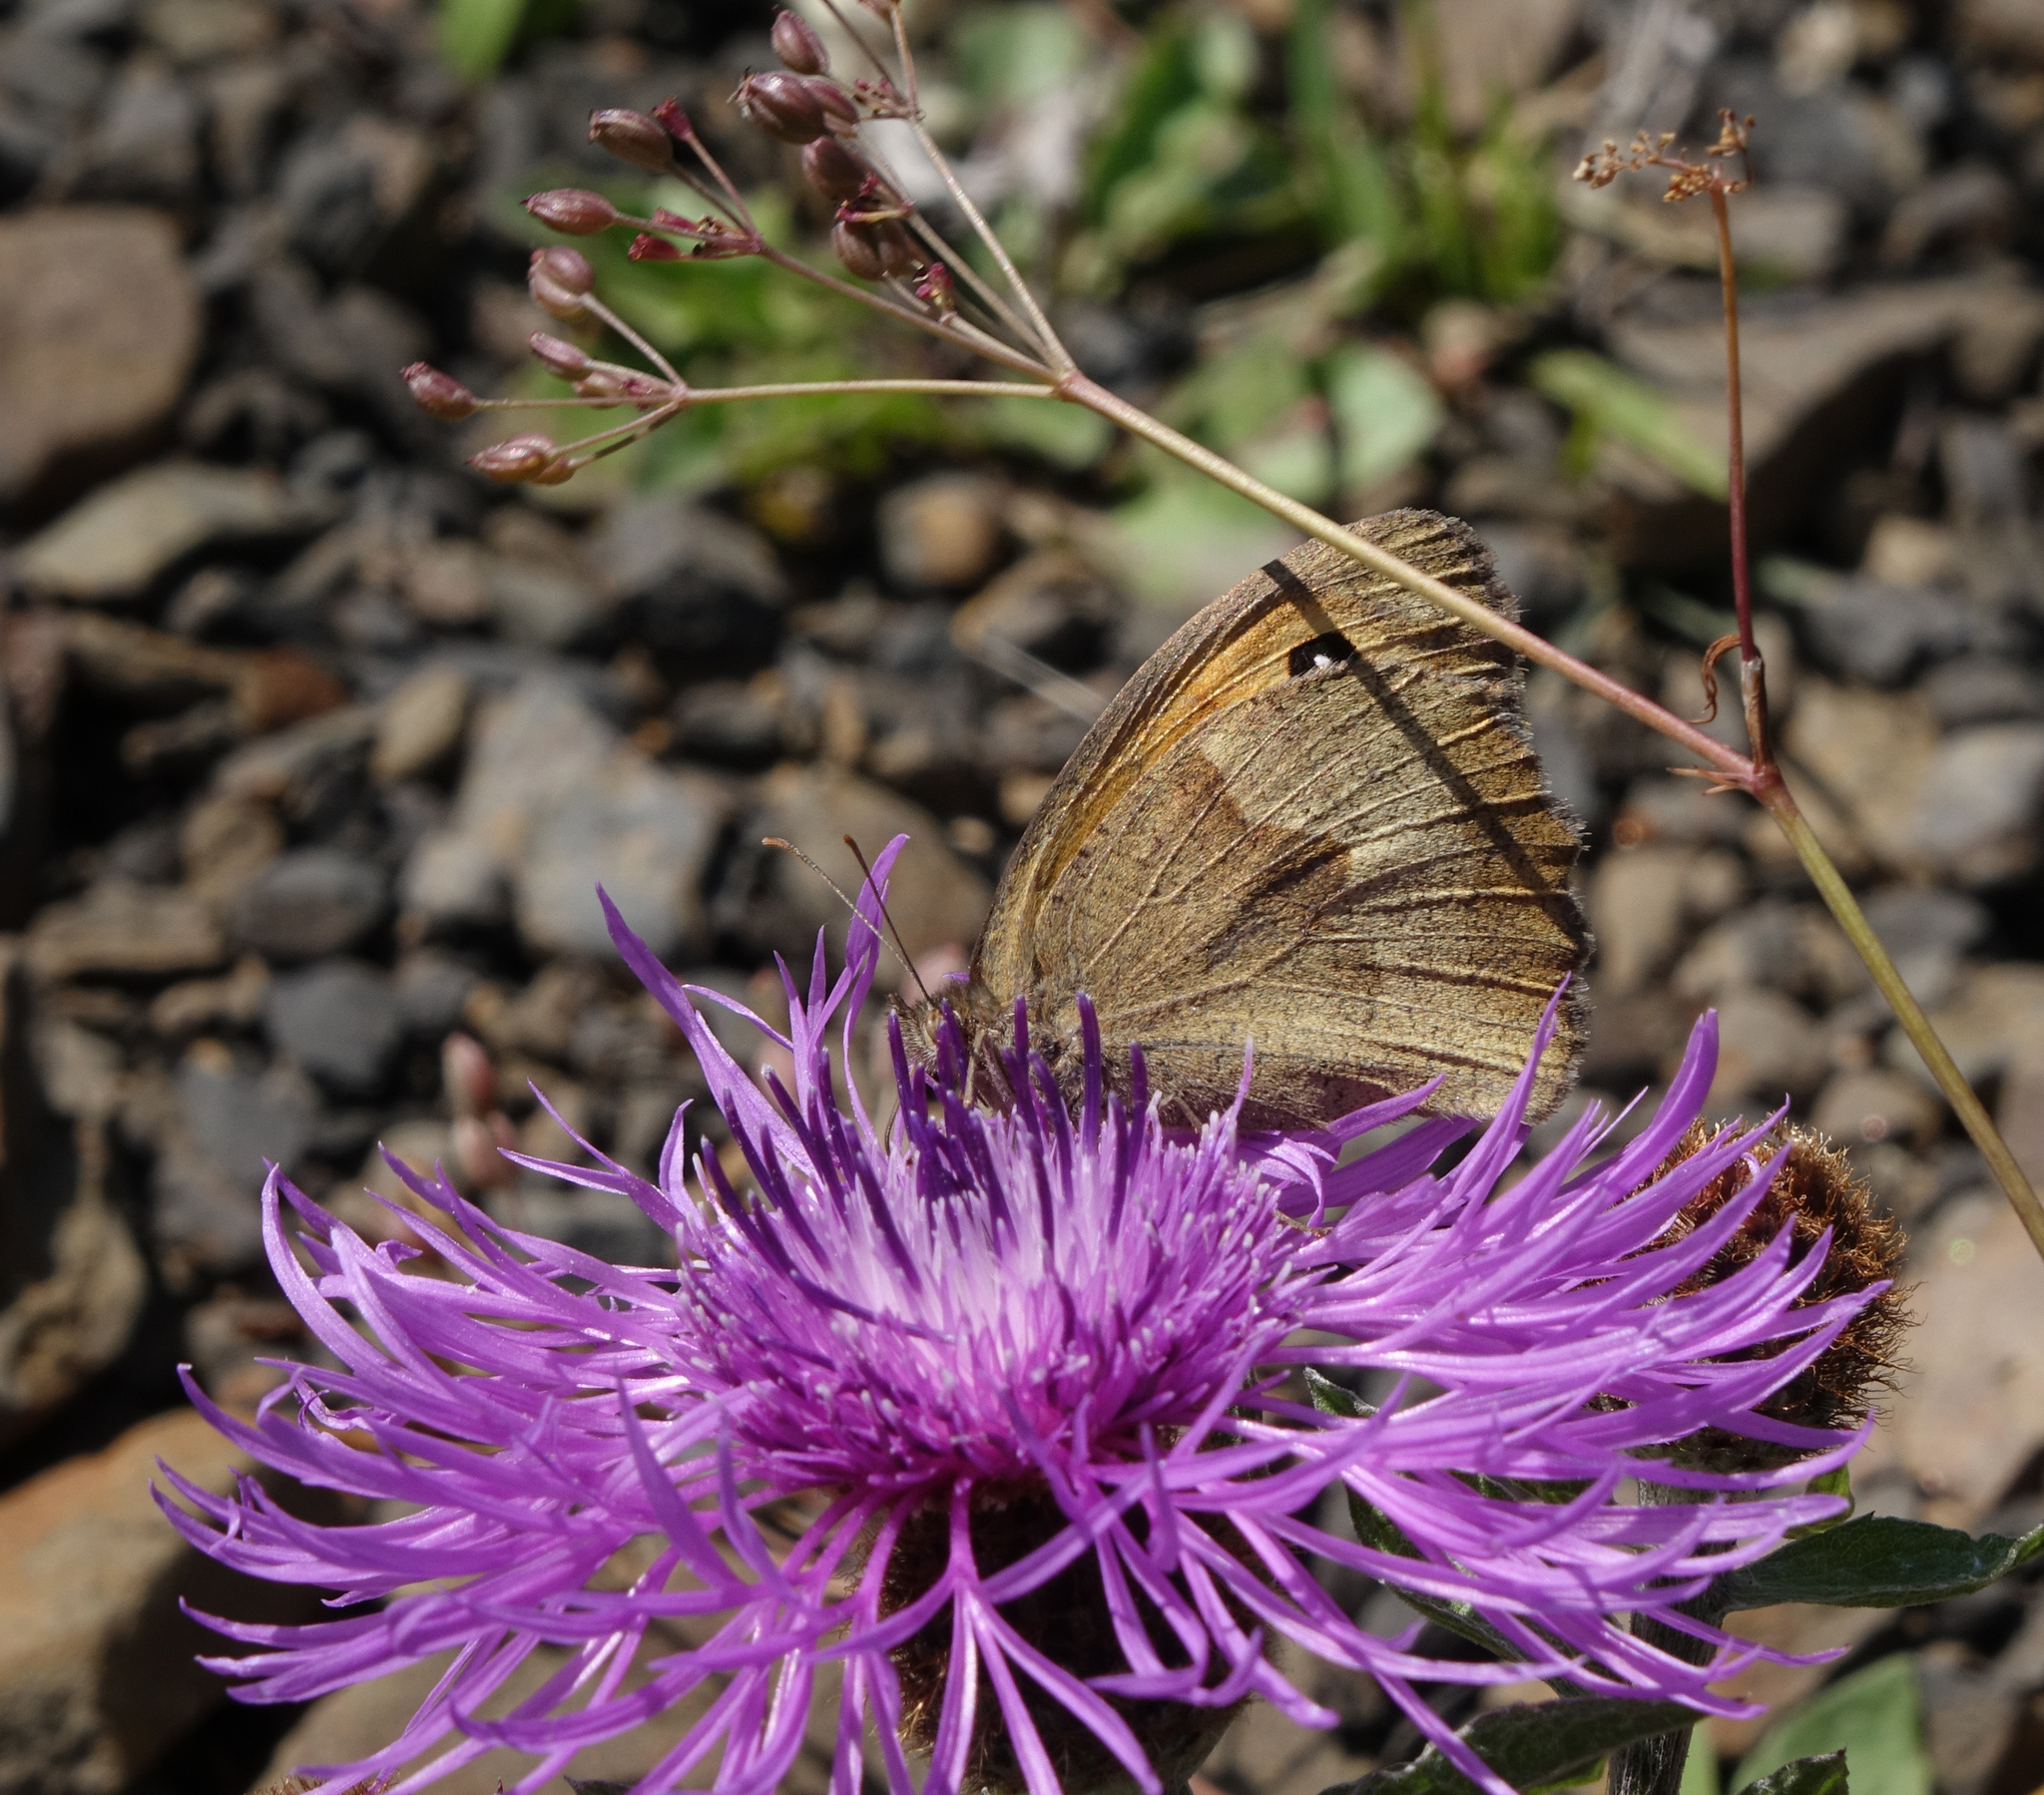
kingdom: Animalia
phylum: Arthropoda
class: Insecta
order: Lepidoptera
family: Nymphalidae
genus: Maniola
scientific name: Maniola jurtina
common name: Meadow brown
